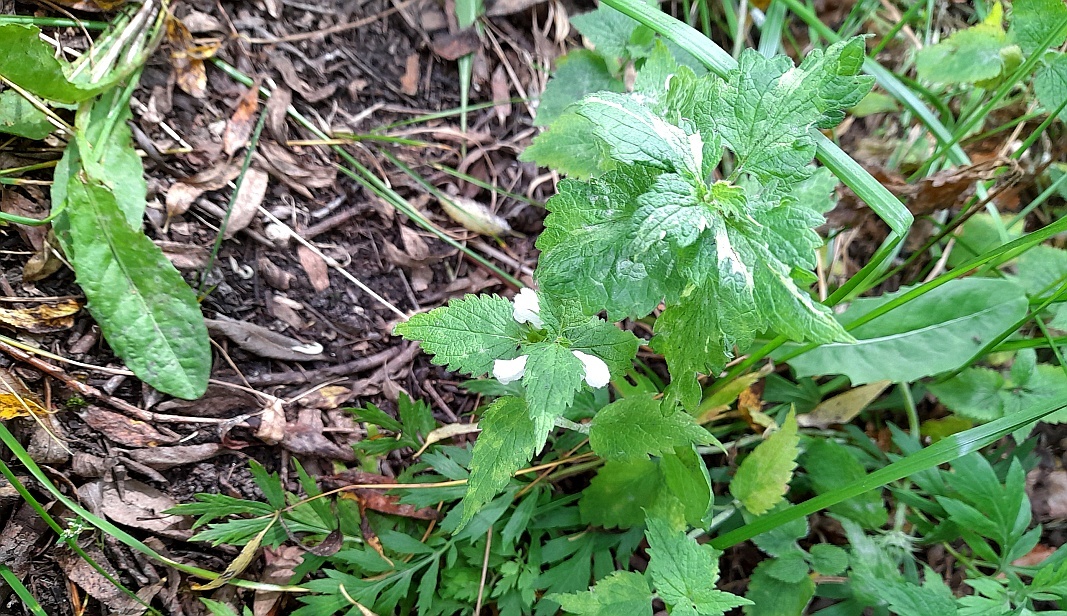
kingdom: Plantae
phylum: Tracheophyta
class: Magnoliopsida
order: Lamiales
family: Lamiaceae
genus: Lamium
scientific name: Lamium album
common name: White dead-nettle
